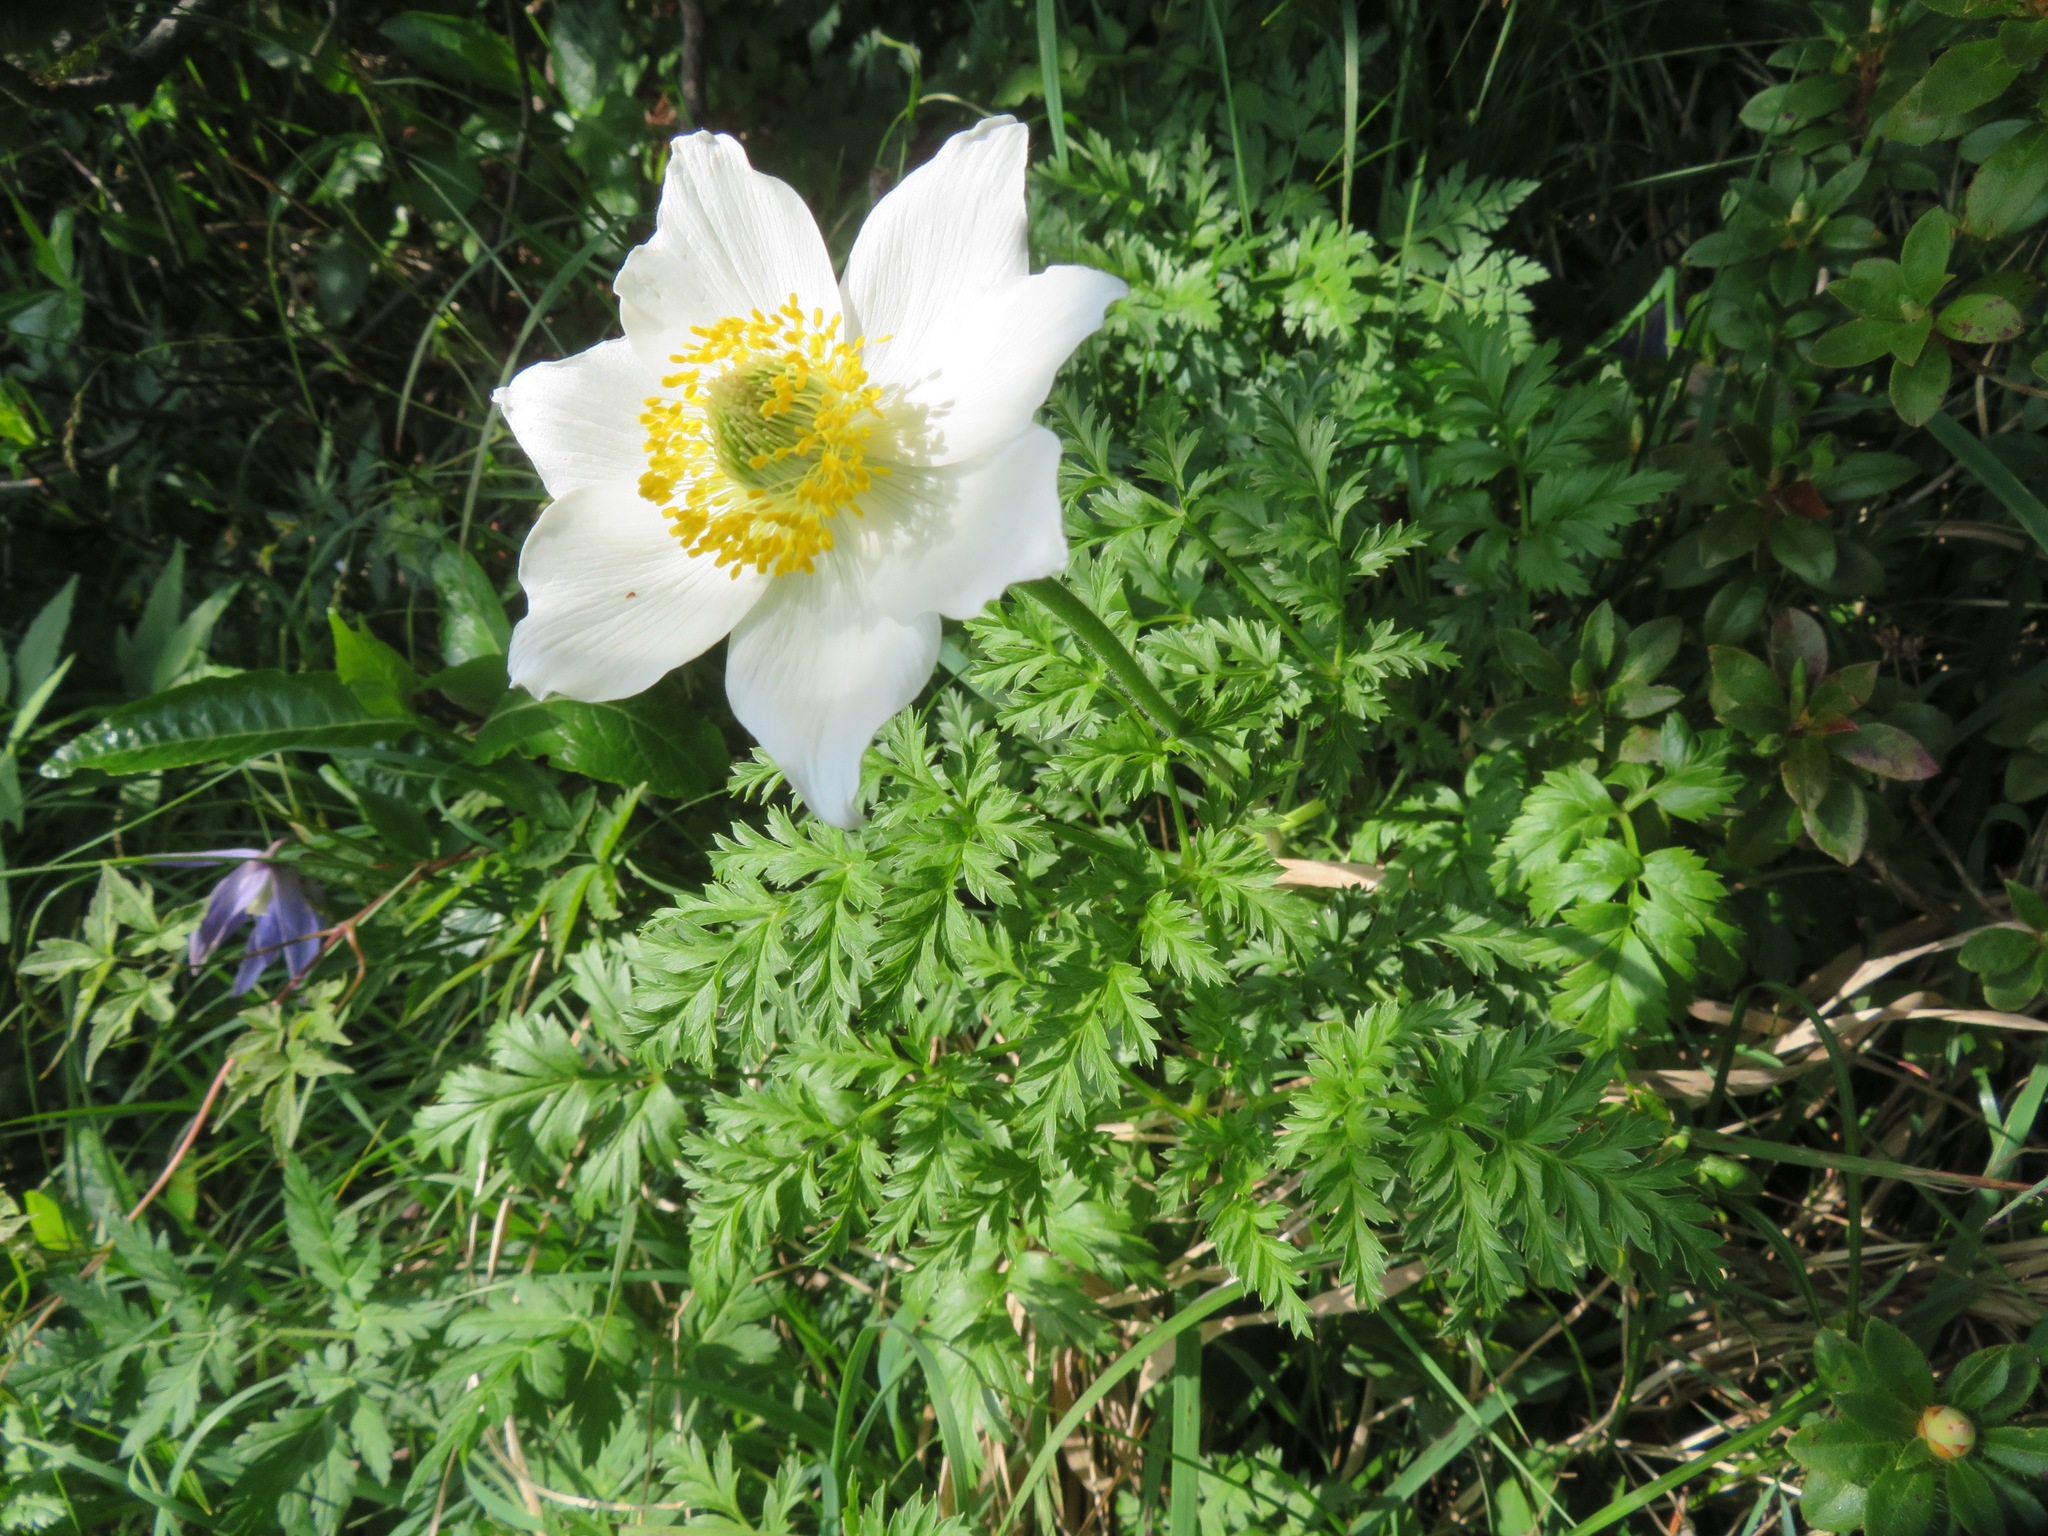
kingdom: Plantae
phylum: Tracheophyta
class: Magnoliopsida
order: Ranunculales
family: Ranunculaceae
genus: Pulsatilla
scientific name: Pulsatilla alpina
